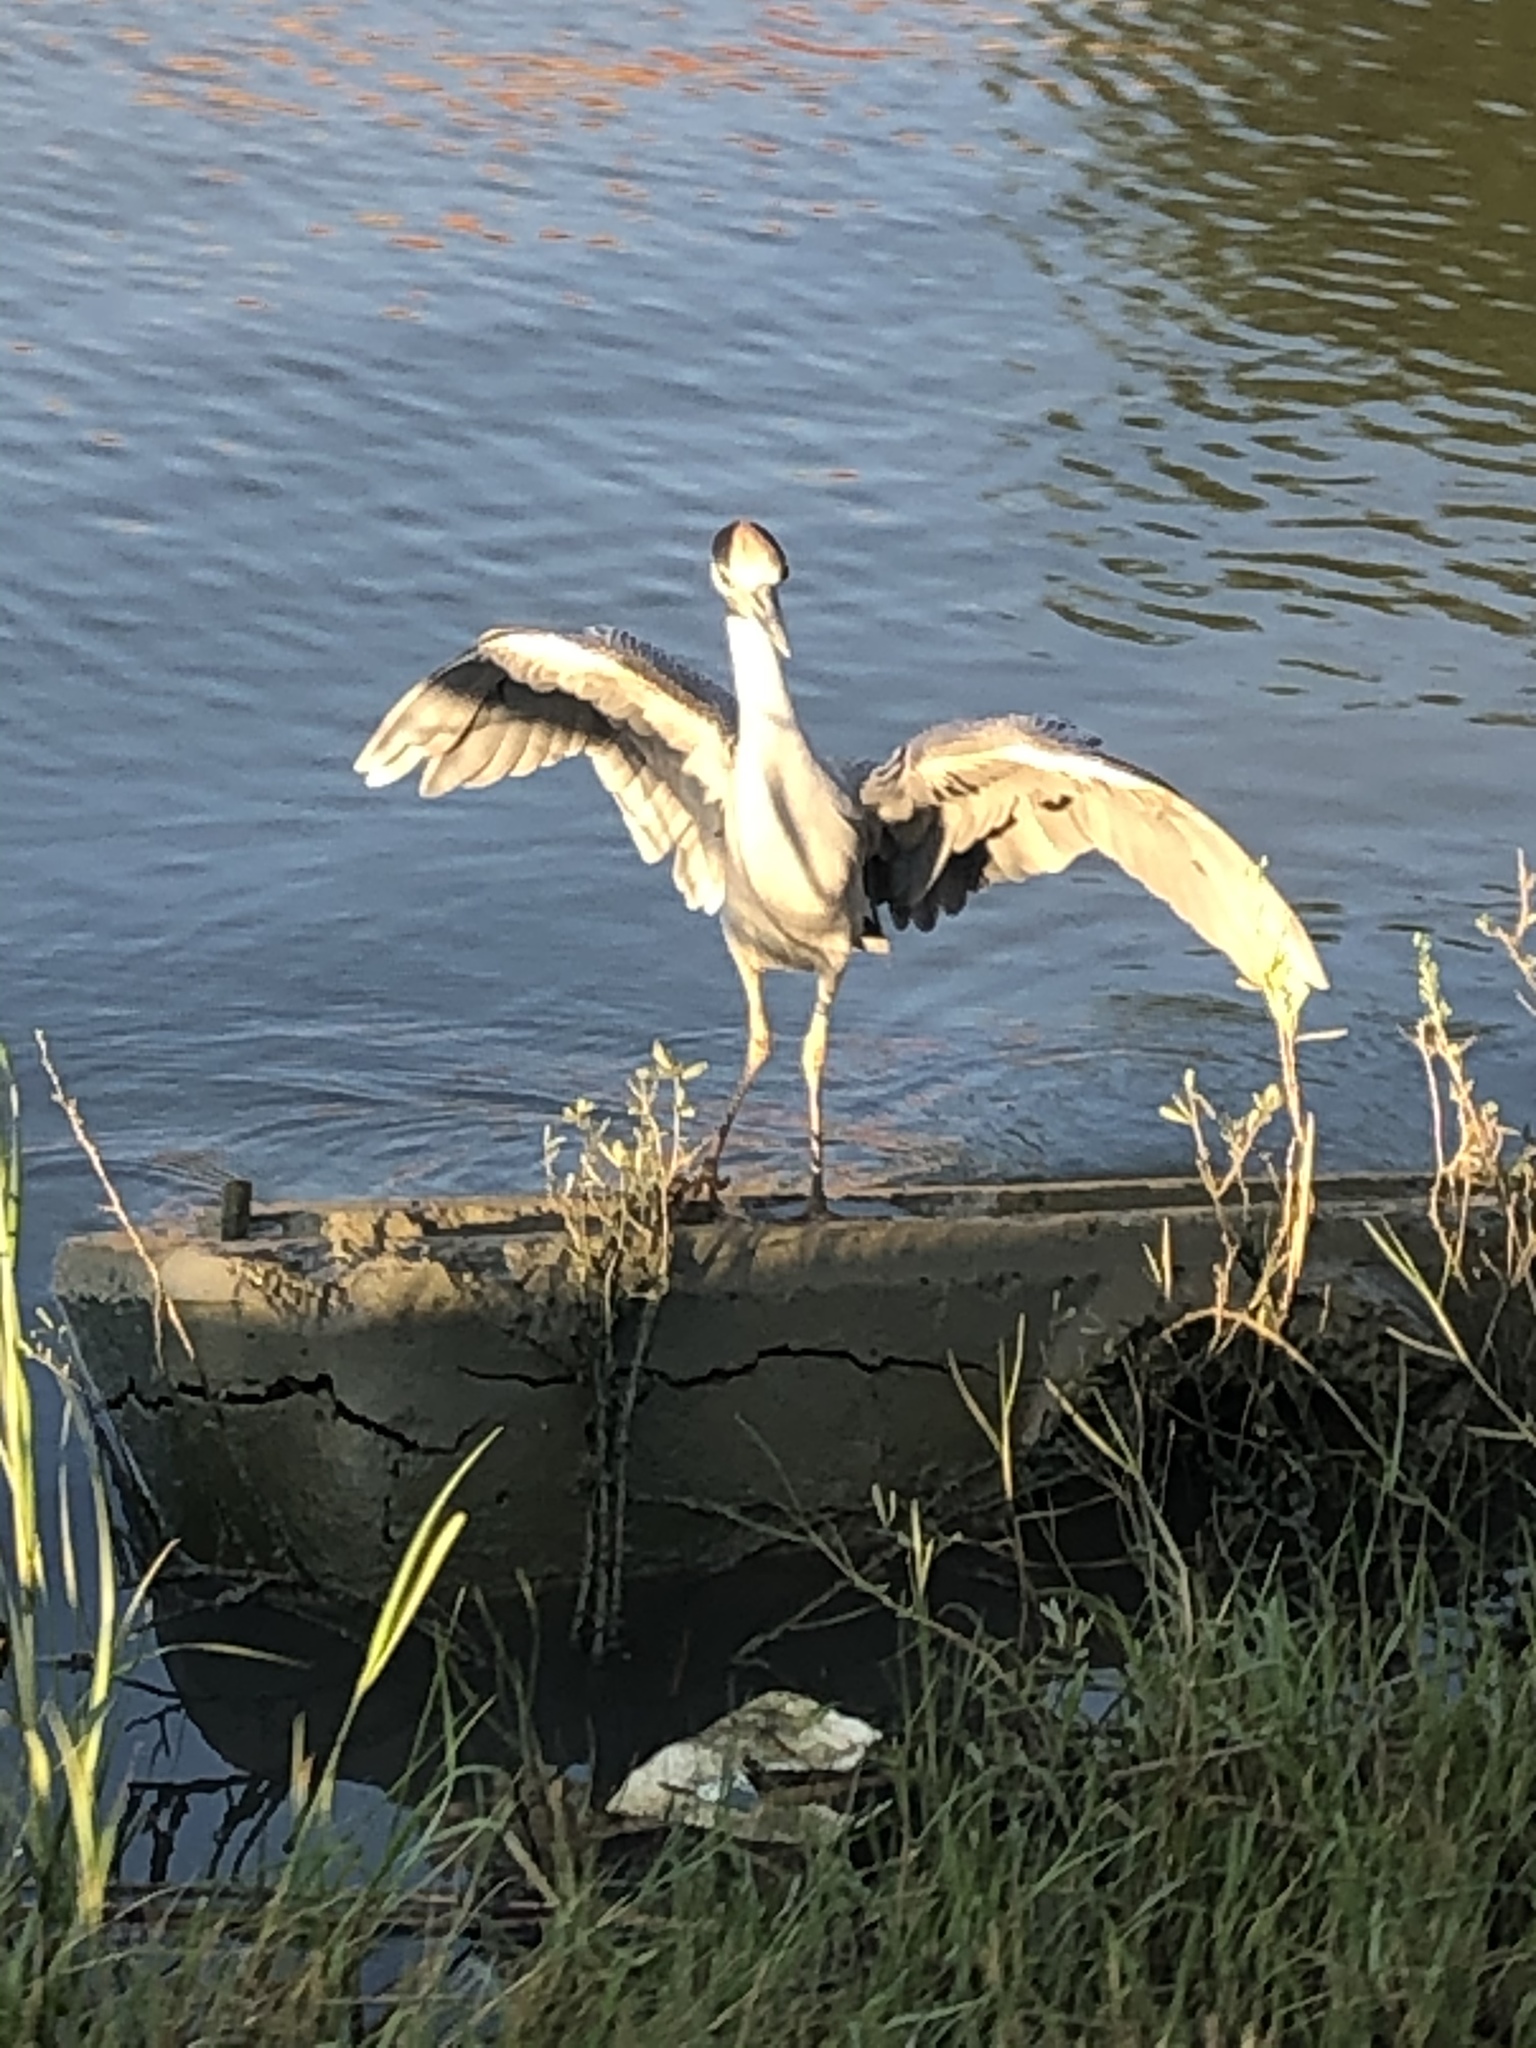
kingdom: Animalia
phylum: Chordata
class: Aves
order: Pelecaniformes
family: Ardeidae
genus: Nyctanassa
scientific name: Nyctanassa violacea
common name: Yellow-crowned night heron
